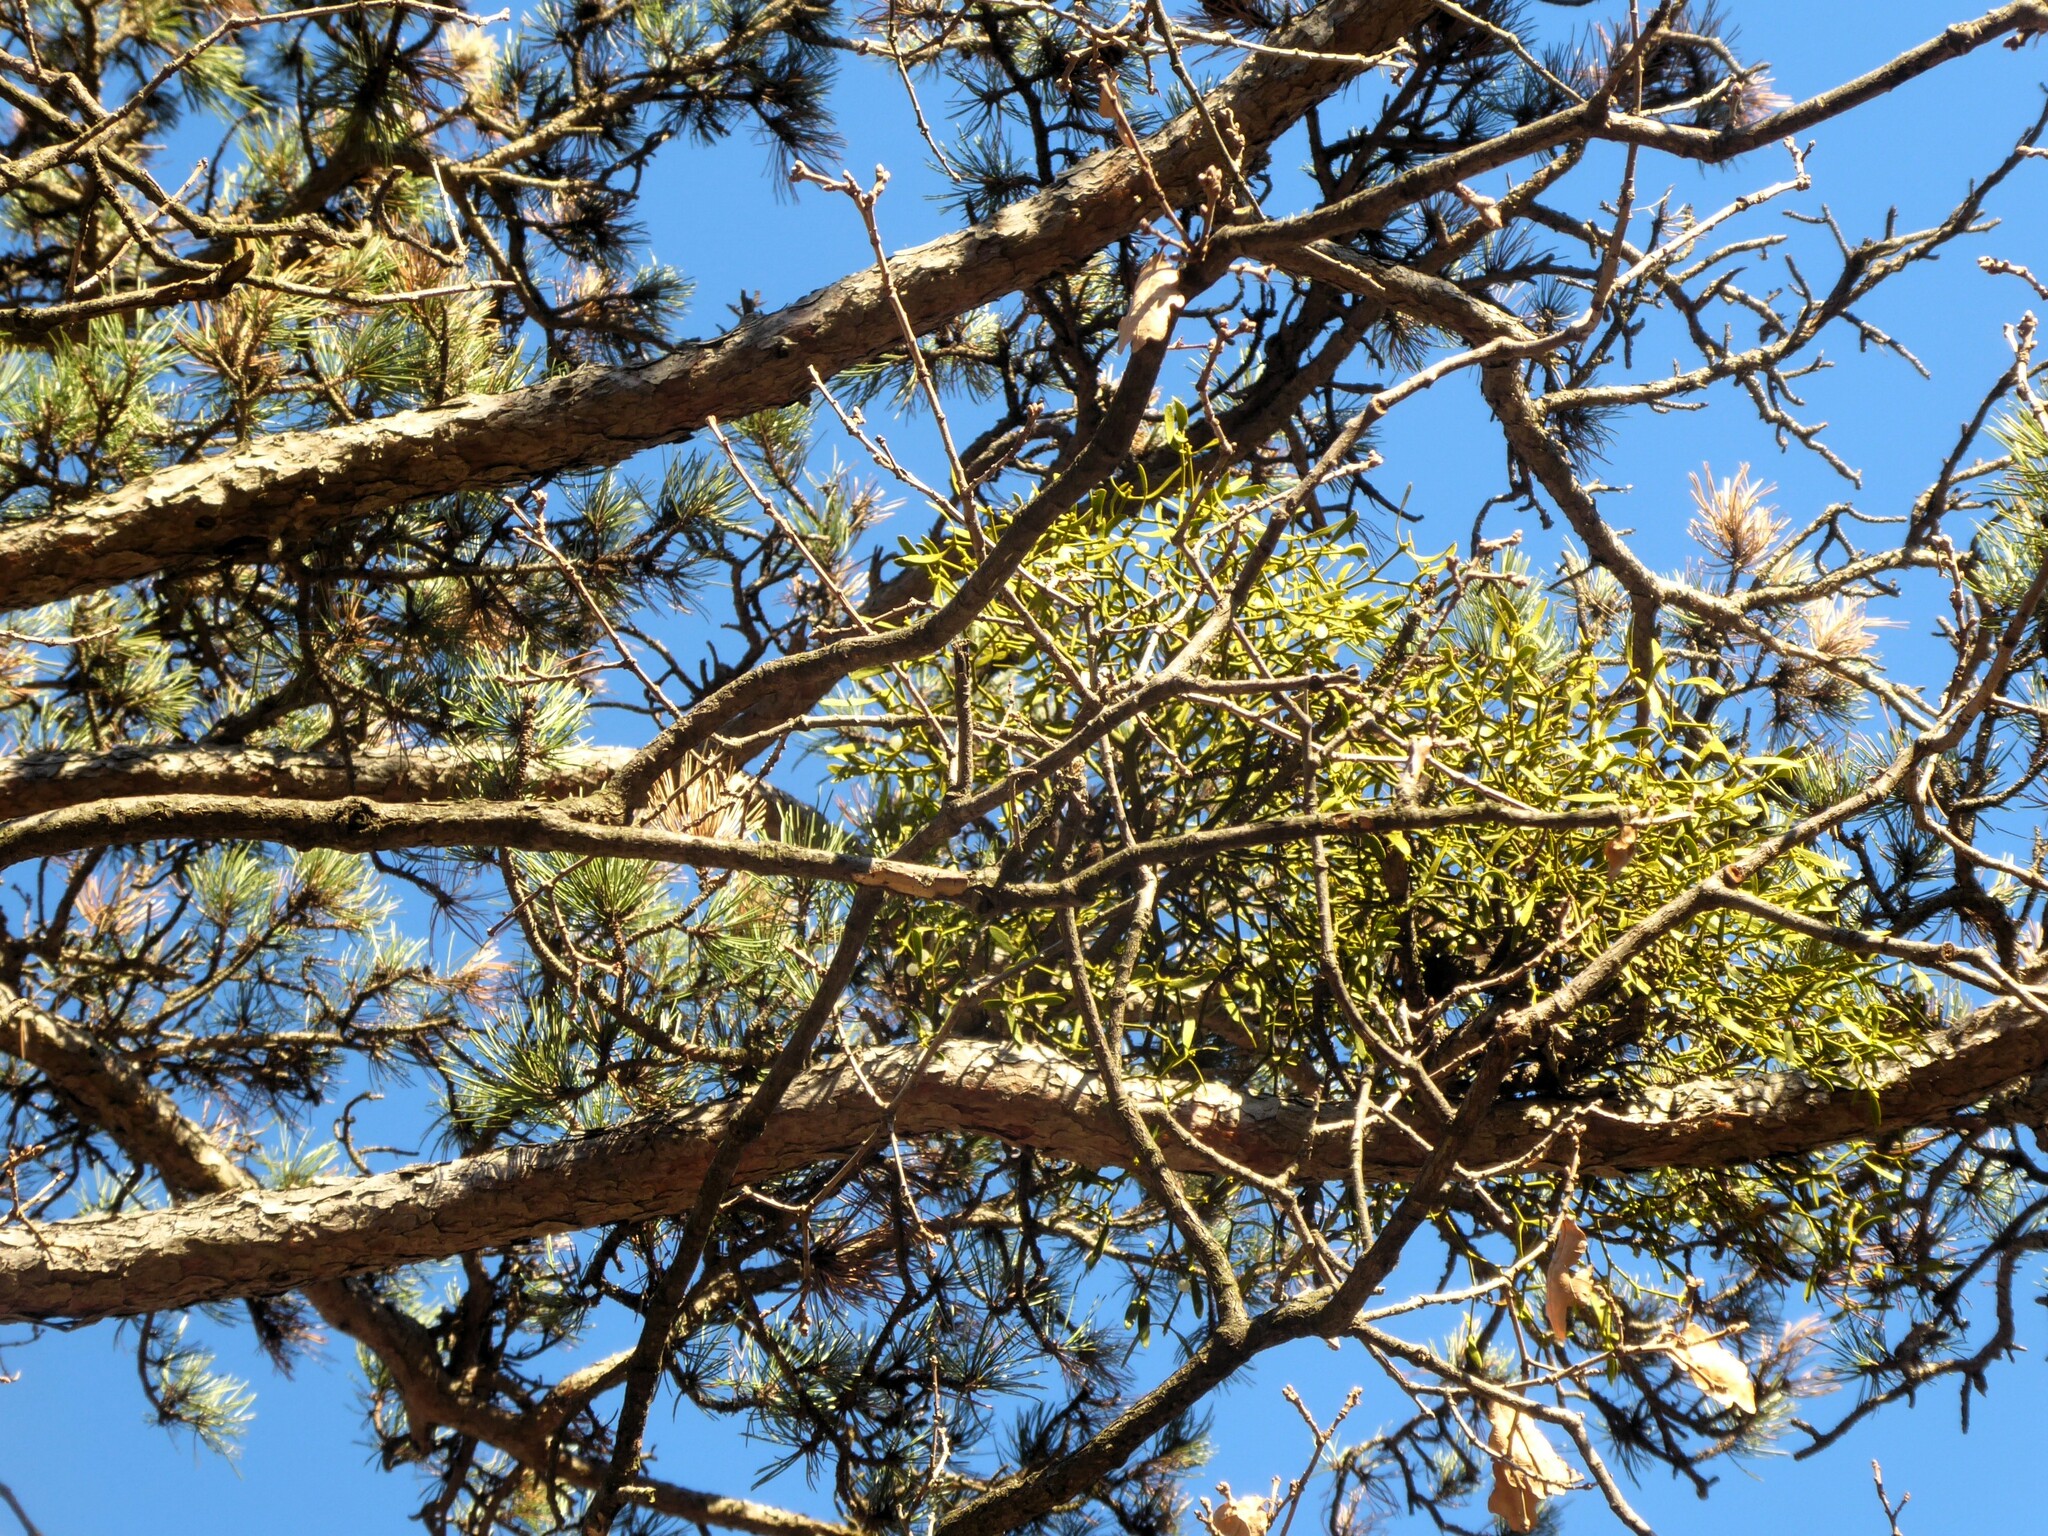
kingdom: Plantae
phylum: Tracheophyta
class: Magnoliopsida
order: Santalales
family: Viscaceae
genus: Viscum
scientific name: Viscum laxum
